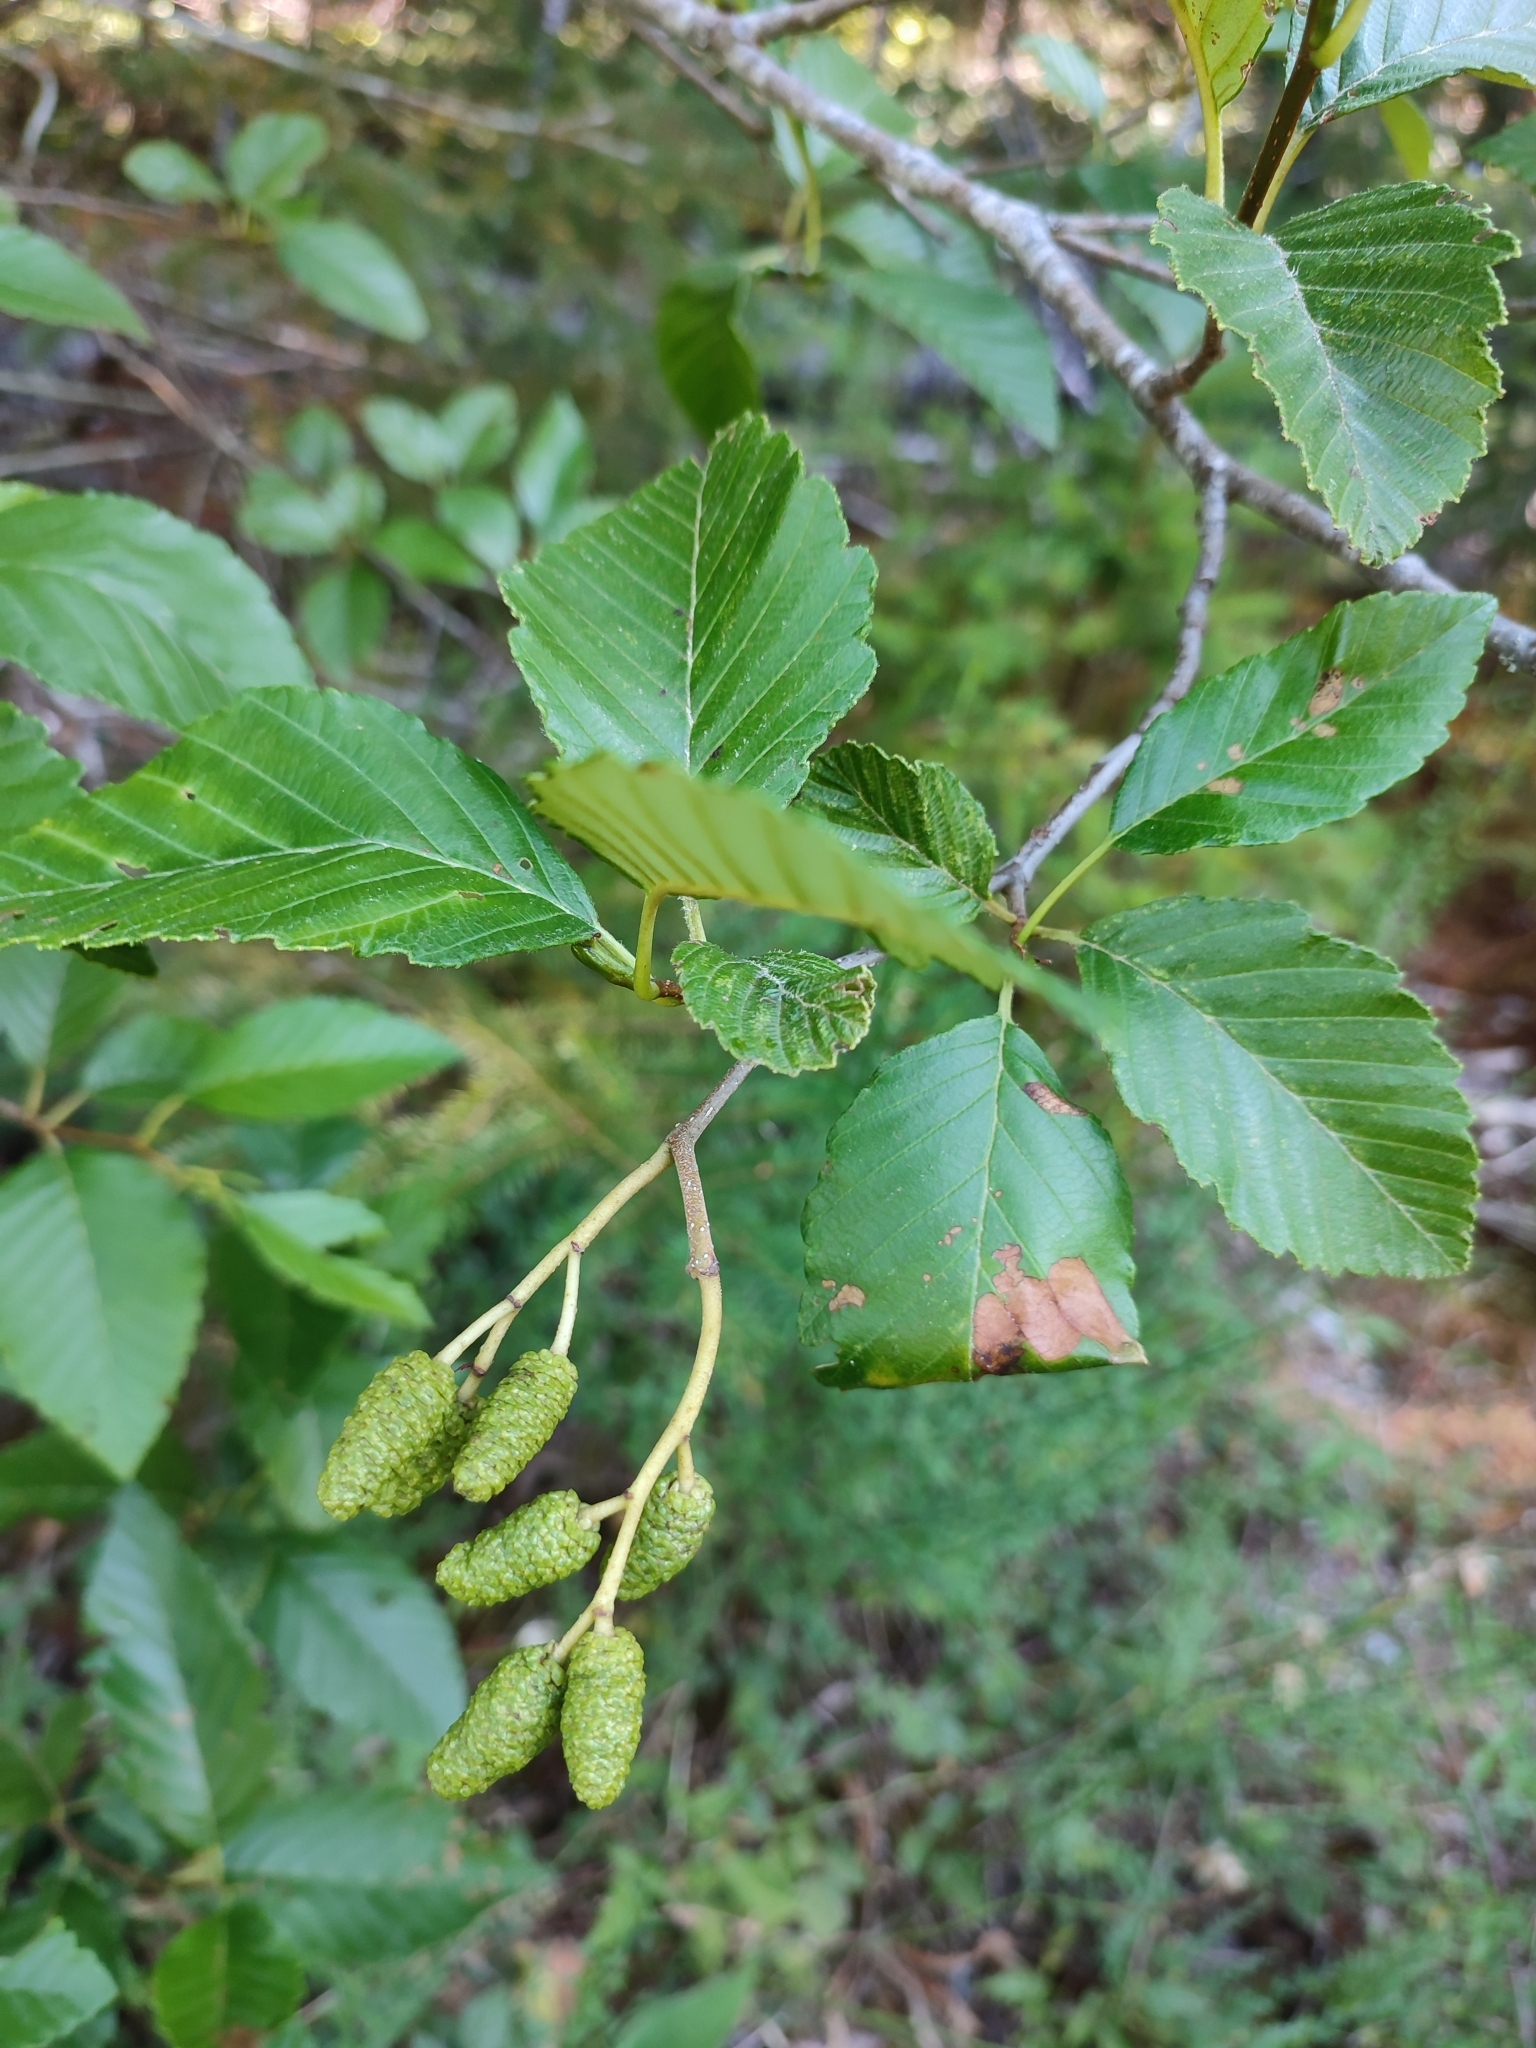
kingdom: Plantae
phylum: Tracheophyta
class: Magnoliopsida
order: Fagales
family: Betulaceae
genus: Alnus
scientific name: Alnus rubra
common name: Red alder
